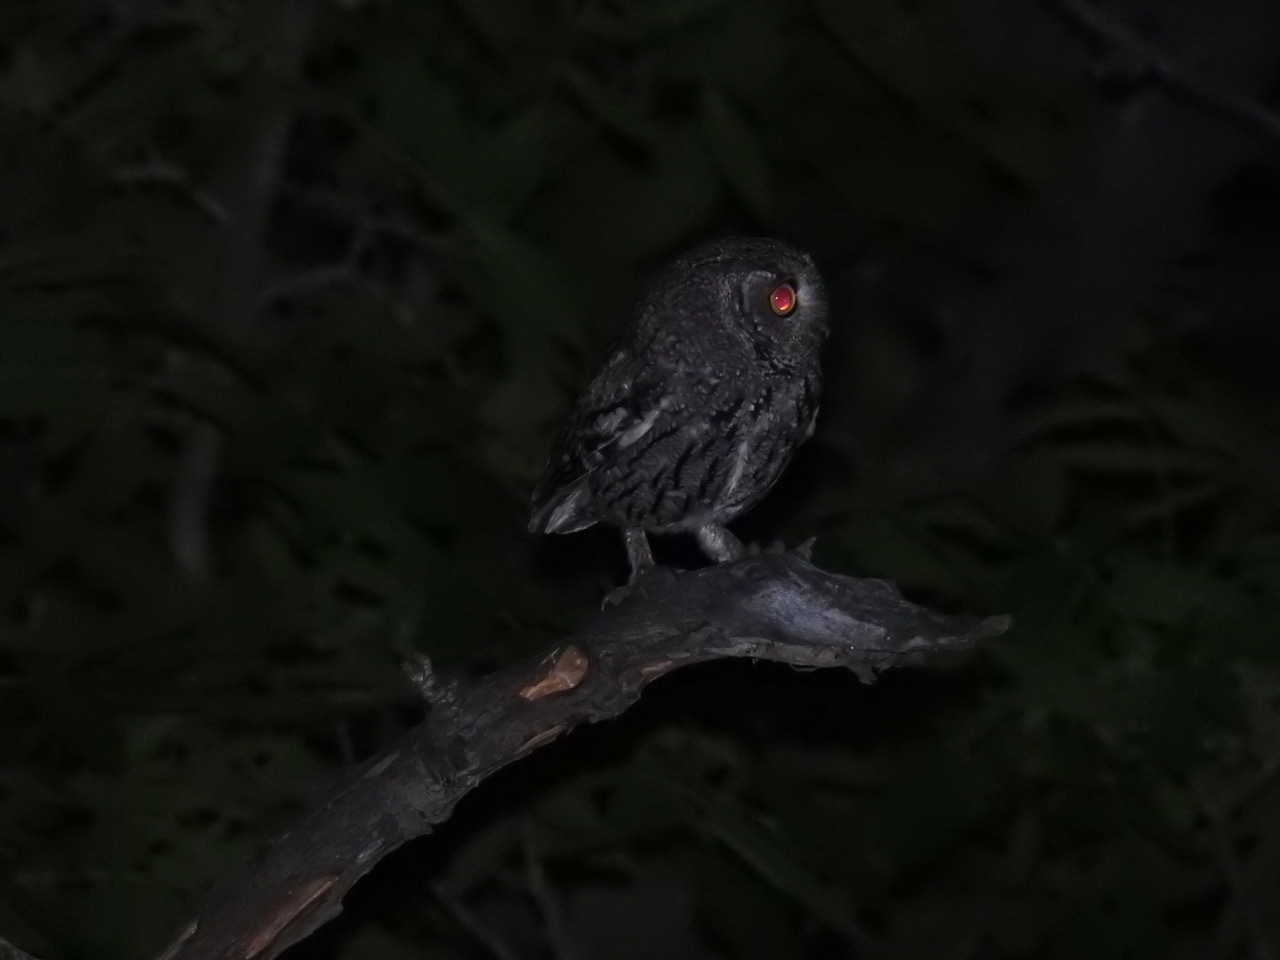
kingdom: Animalia
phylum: Chordata
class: Aves
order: Strigiformes
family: Strigidae
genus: Megascops
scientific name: Megascops kennicottii
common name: Western screech-owl
